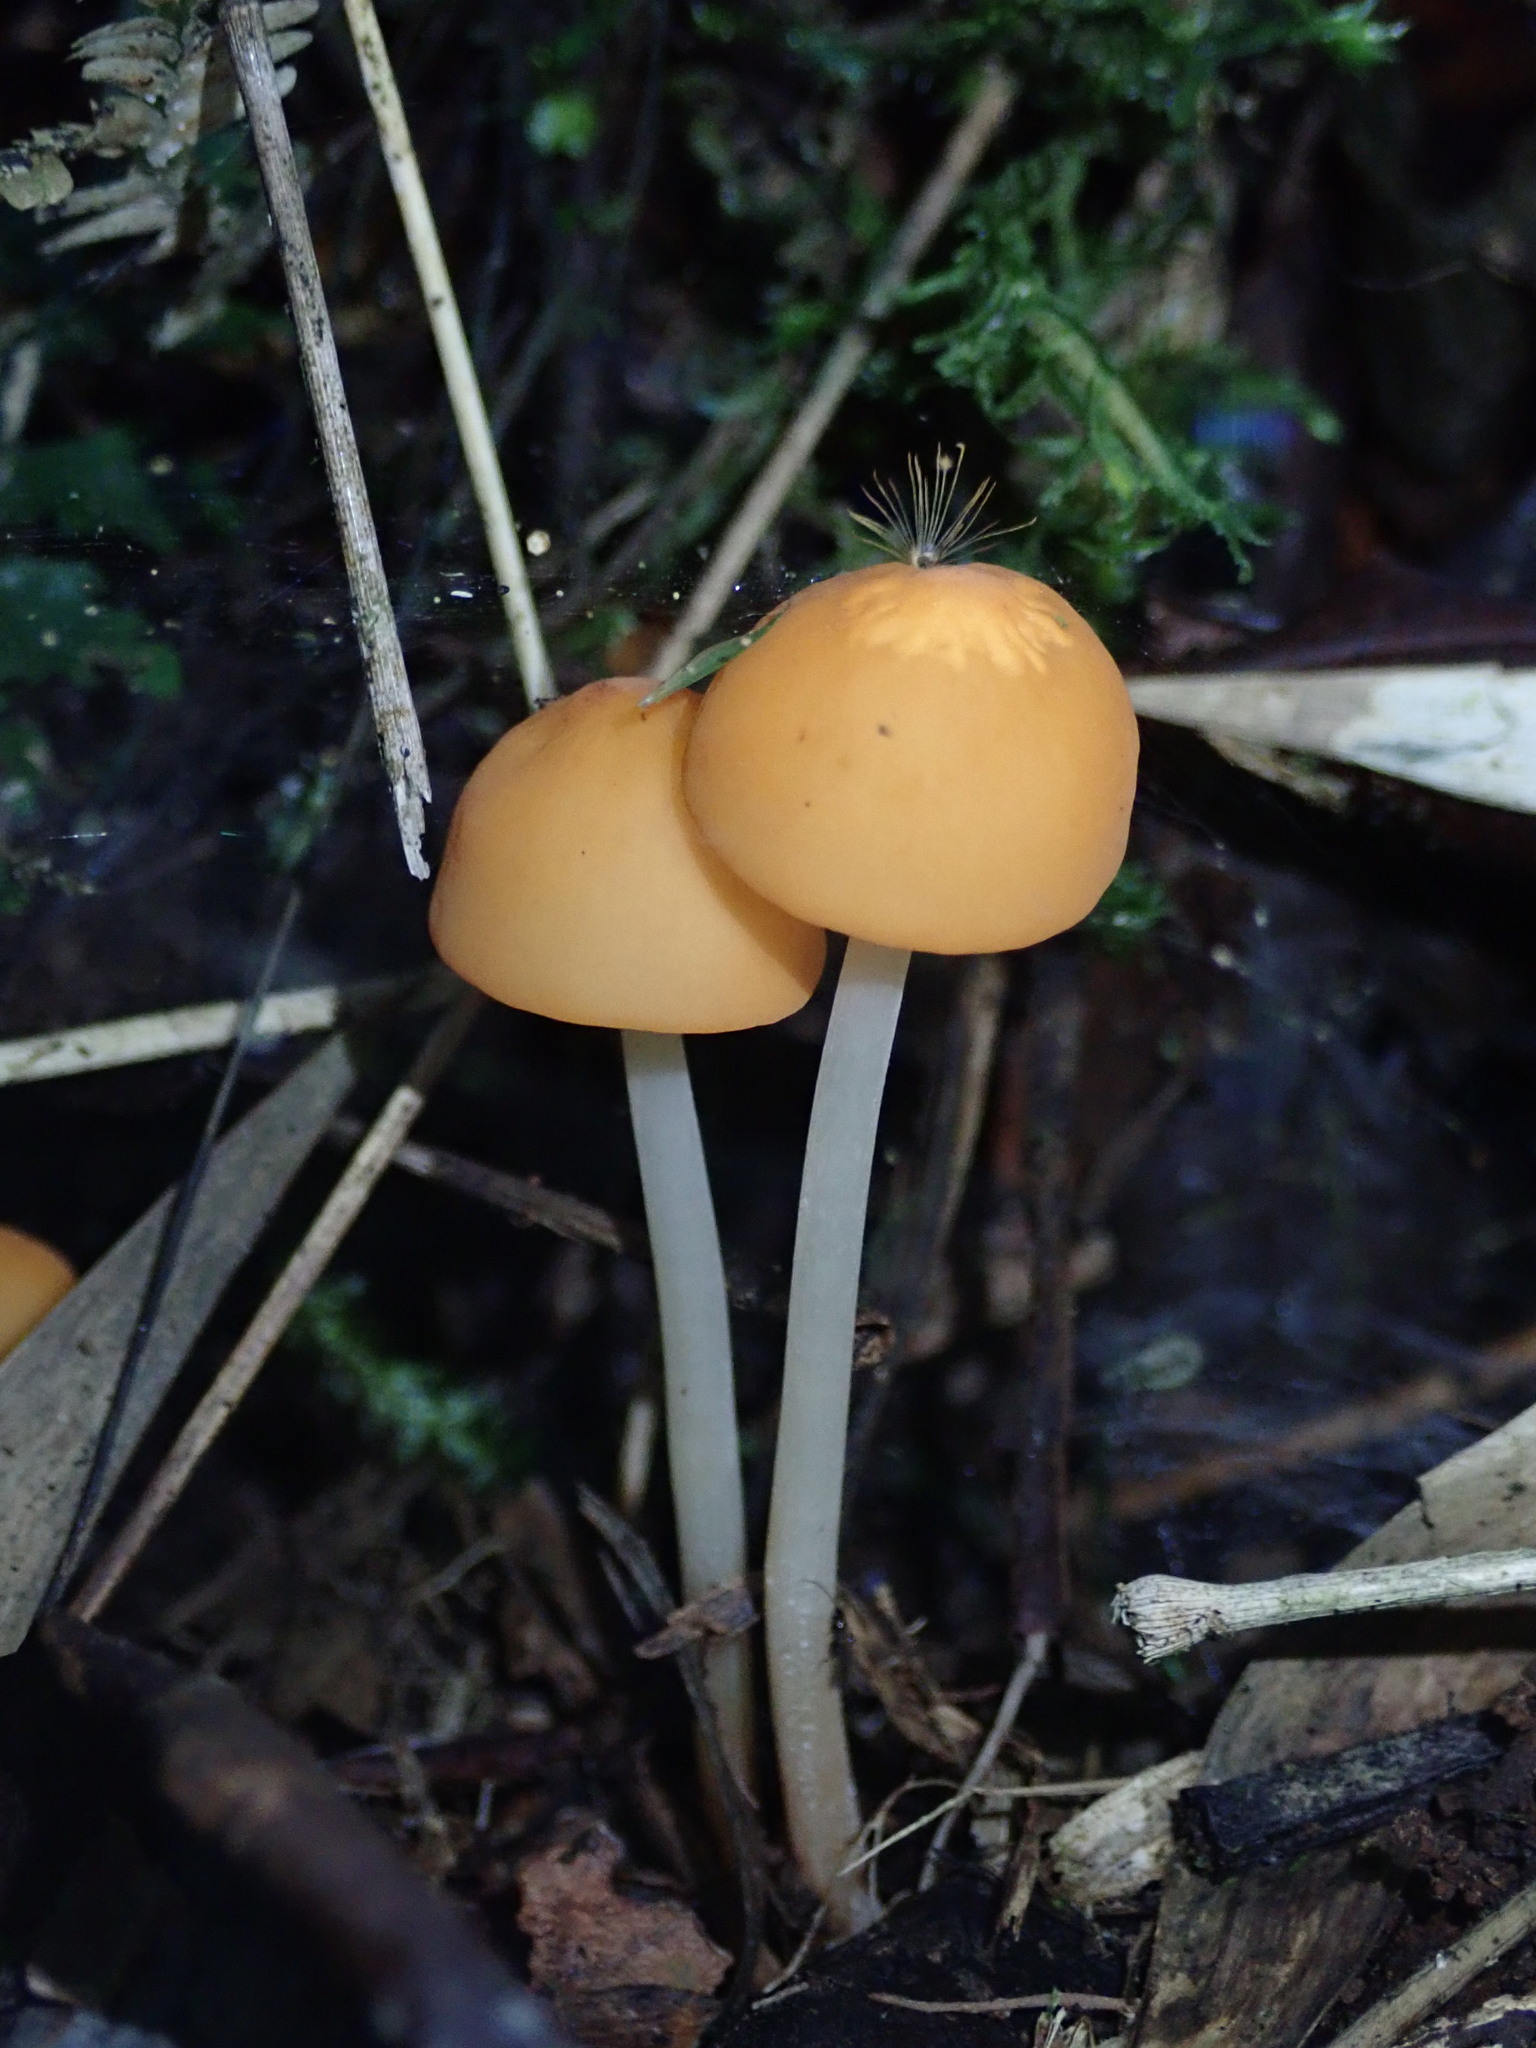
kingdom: Fungi
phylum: Basidiomycota
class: Agaricomycetes
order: Agaricales
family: Marasmiaceae
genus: Marasmius
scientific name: Marasmius cladophyllus
